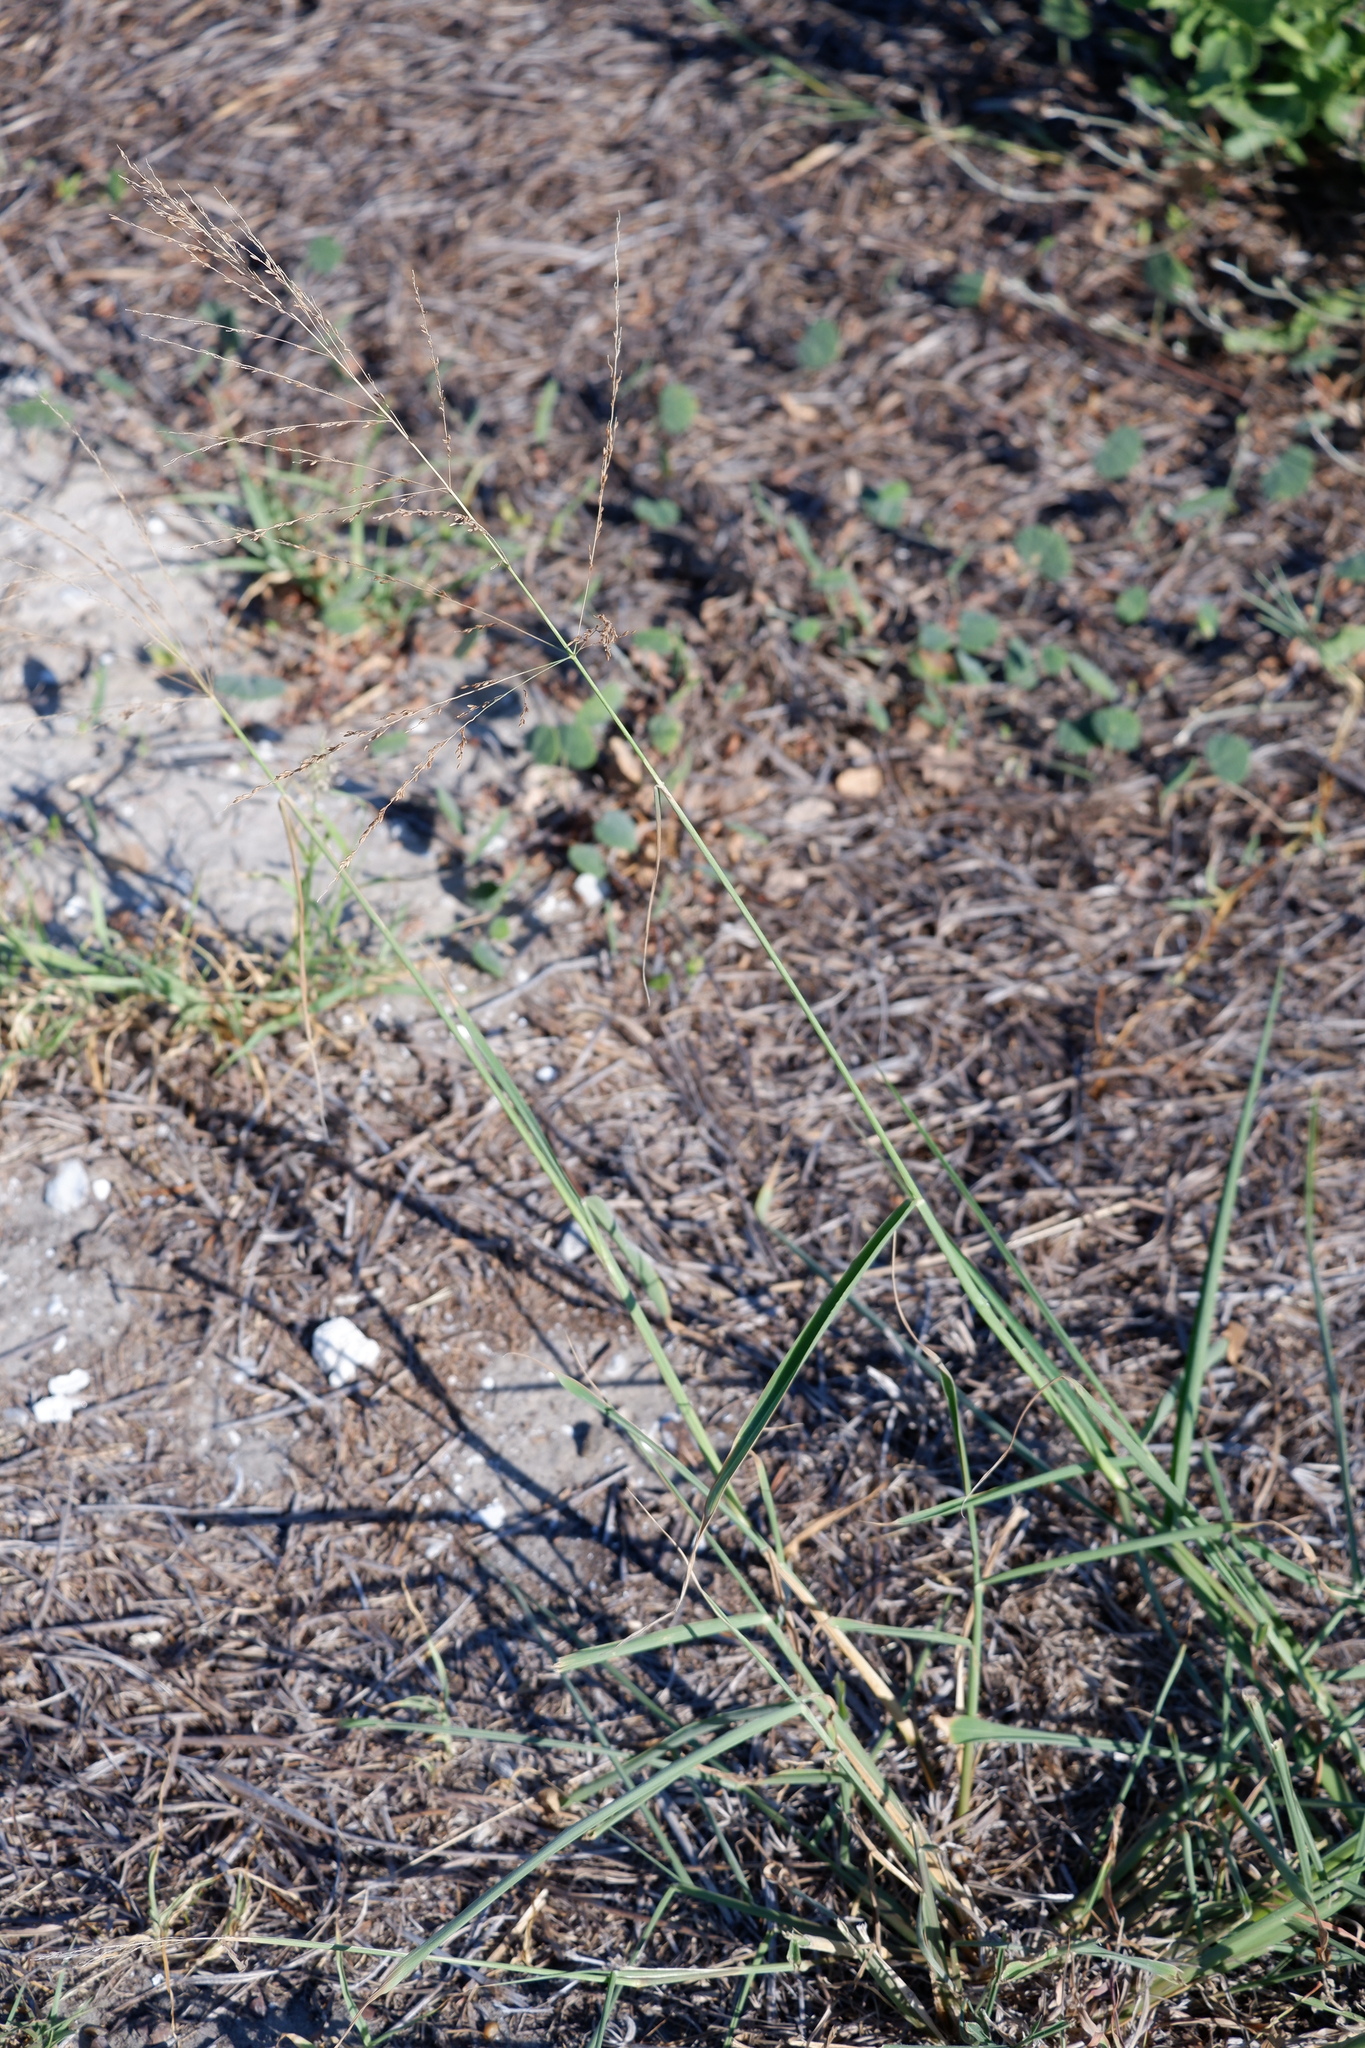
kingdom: Plantae
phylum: Tracheophyta
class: Liliopsida
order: Poales
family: Poaceae
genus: Megathyrsus
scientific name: Megathyrsus maximus
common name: Guineagrass
